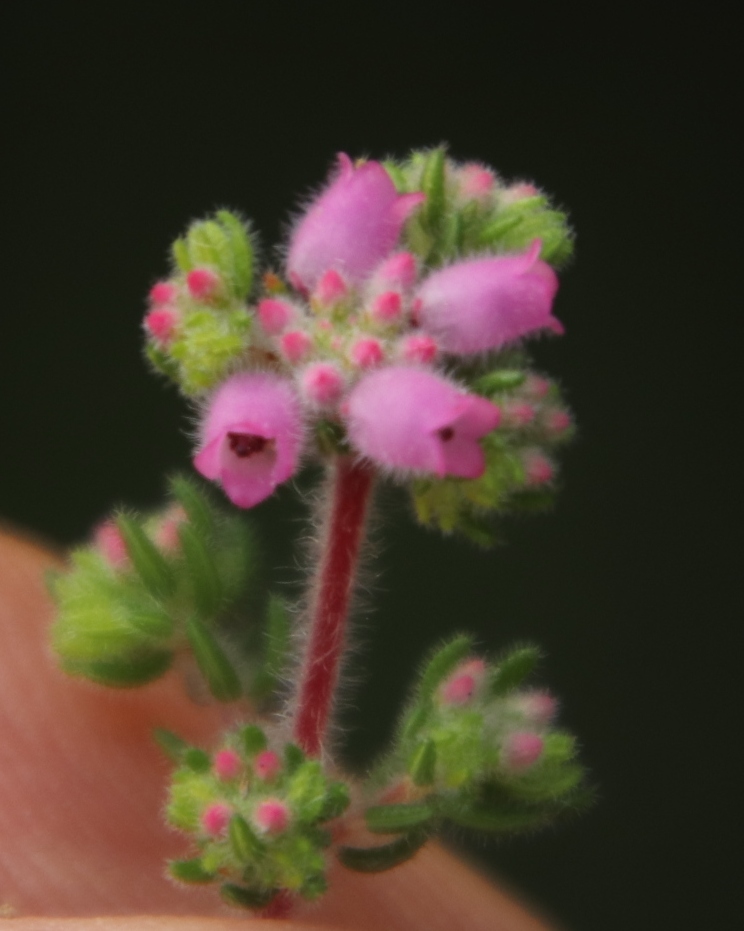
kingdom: Plantae
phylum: Tracheophyta
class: Magnoliopsida
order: Ericales
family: Ericaceae
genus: Erica
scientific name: Erica parviflora
